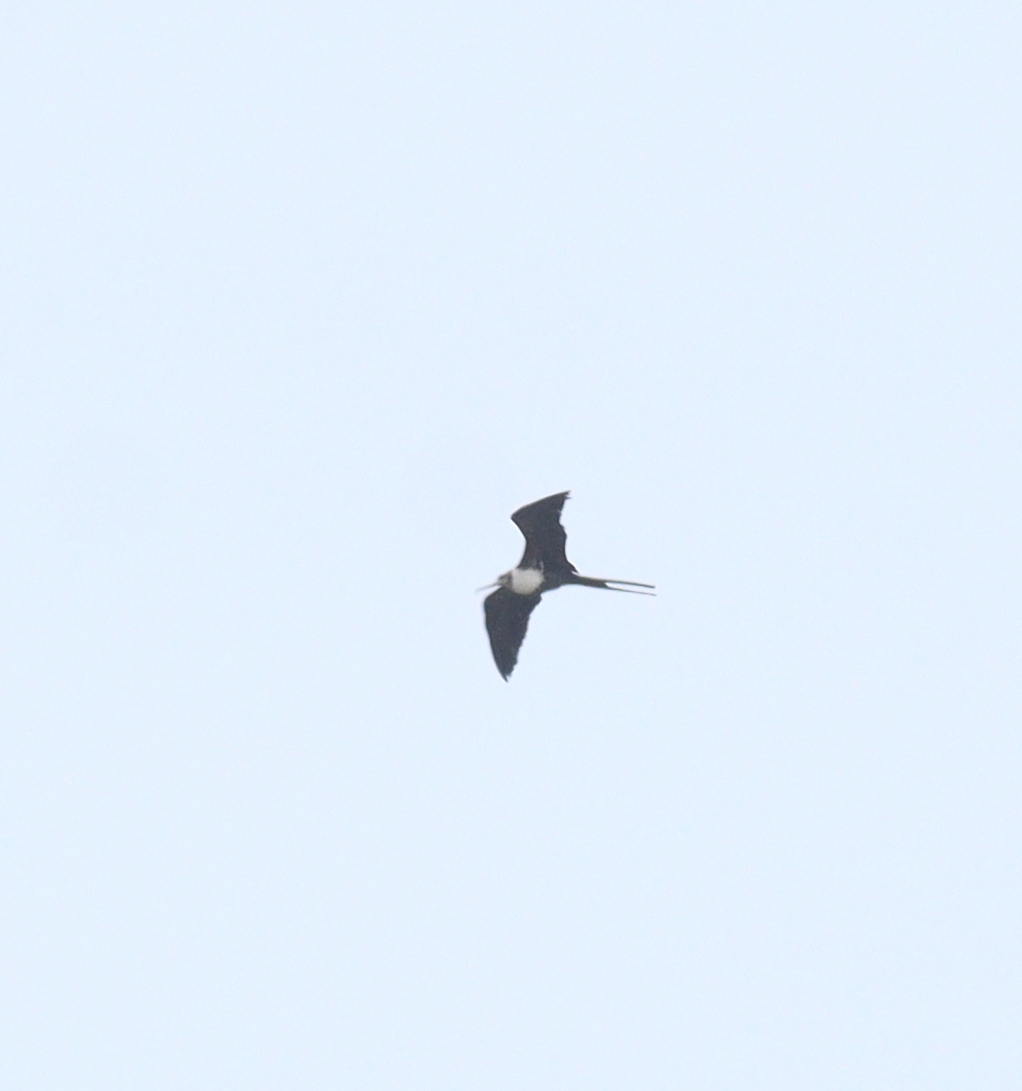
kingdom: Animalia
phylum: Chordata
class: Aves
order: Suliformes
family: Fregatidae
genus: Fregata
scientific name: Fregata magnificens
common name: Magnificent frigatebird
